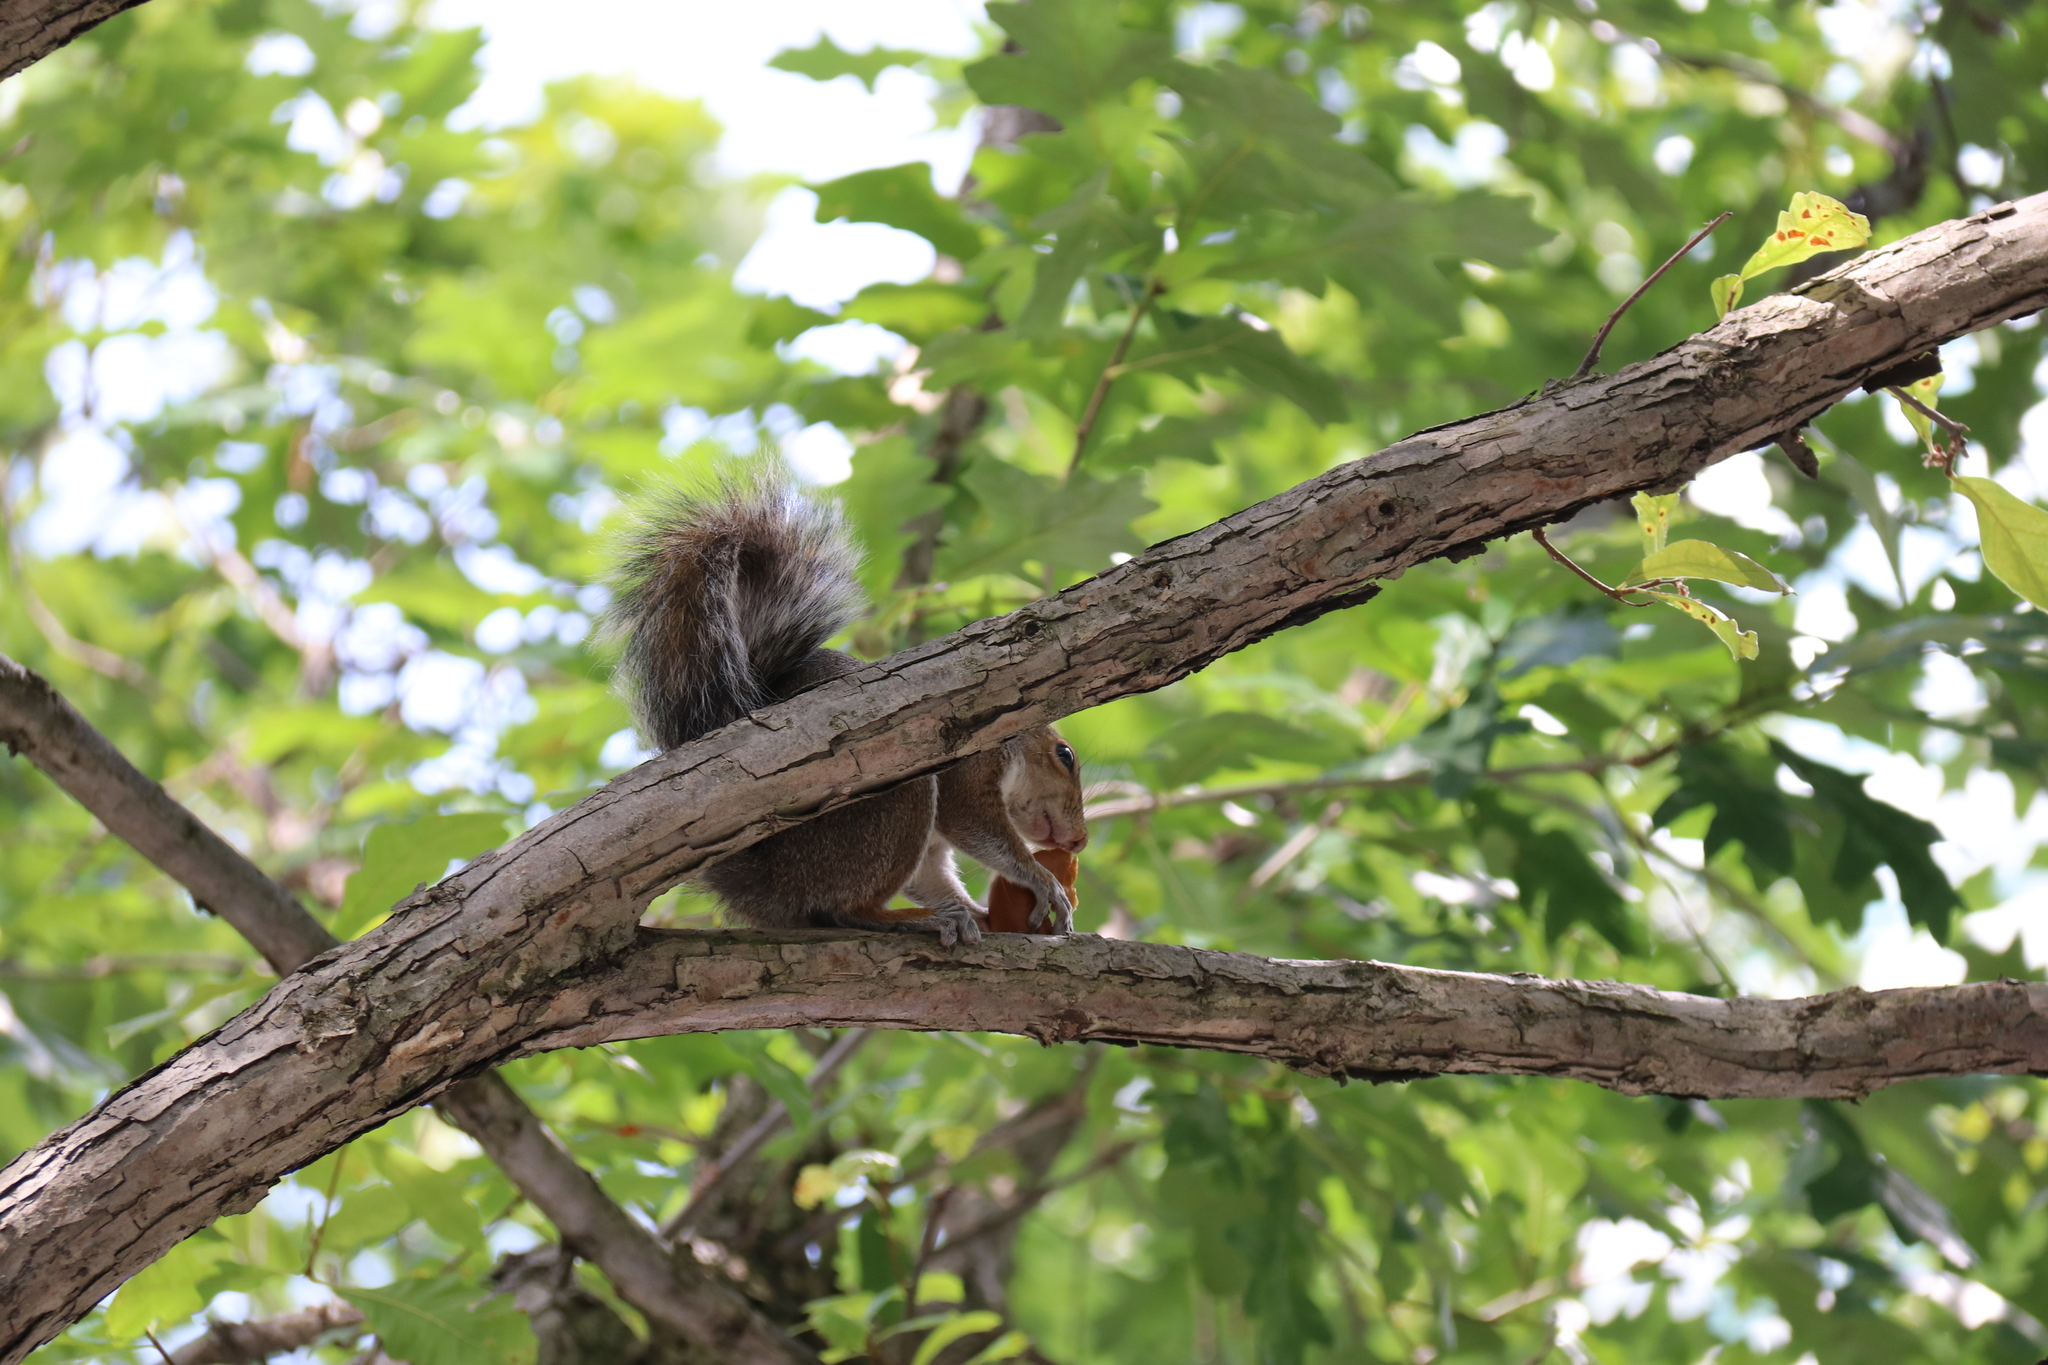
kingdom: Animalia
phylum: Chordata
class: Mammalia
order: Rodentia
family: Sciuridae
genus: Sciurus
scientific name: Sciurus carolinensis
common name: Eastern gray squirrel
